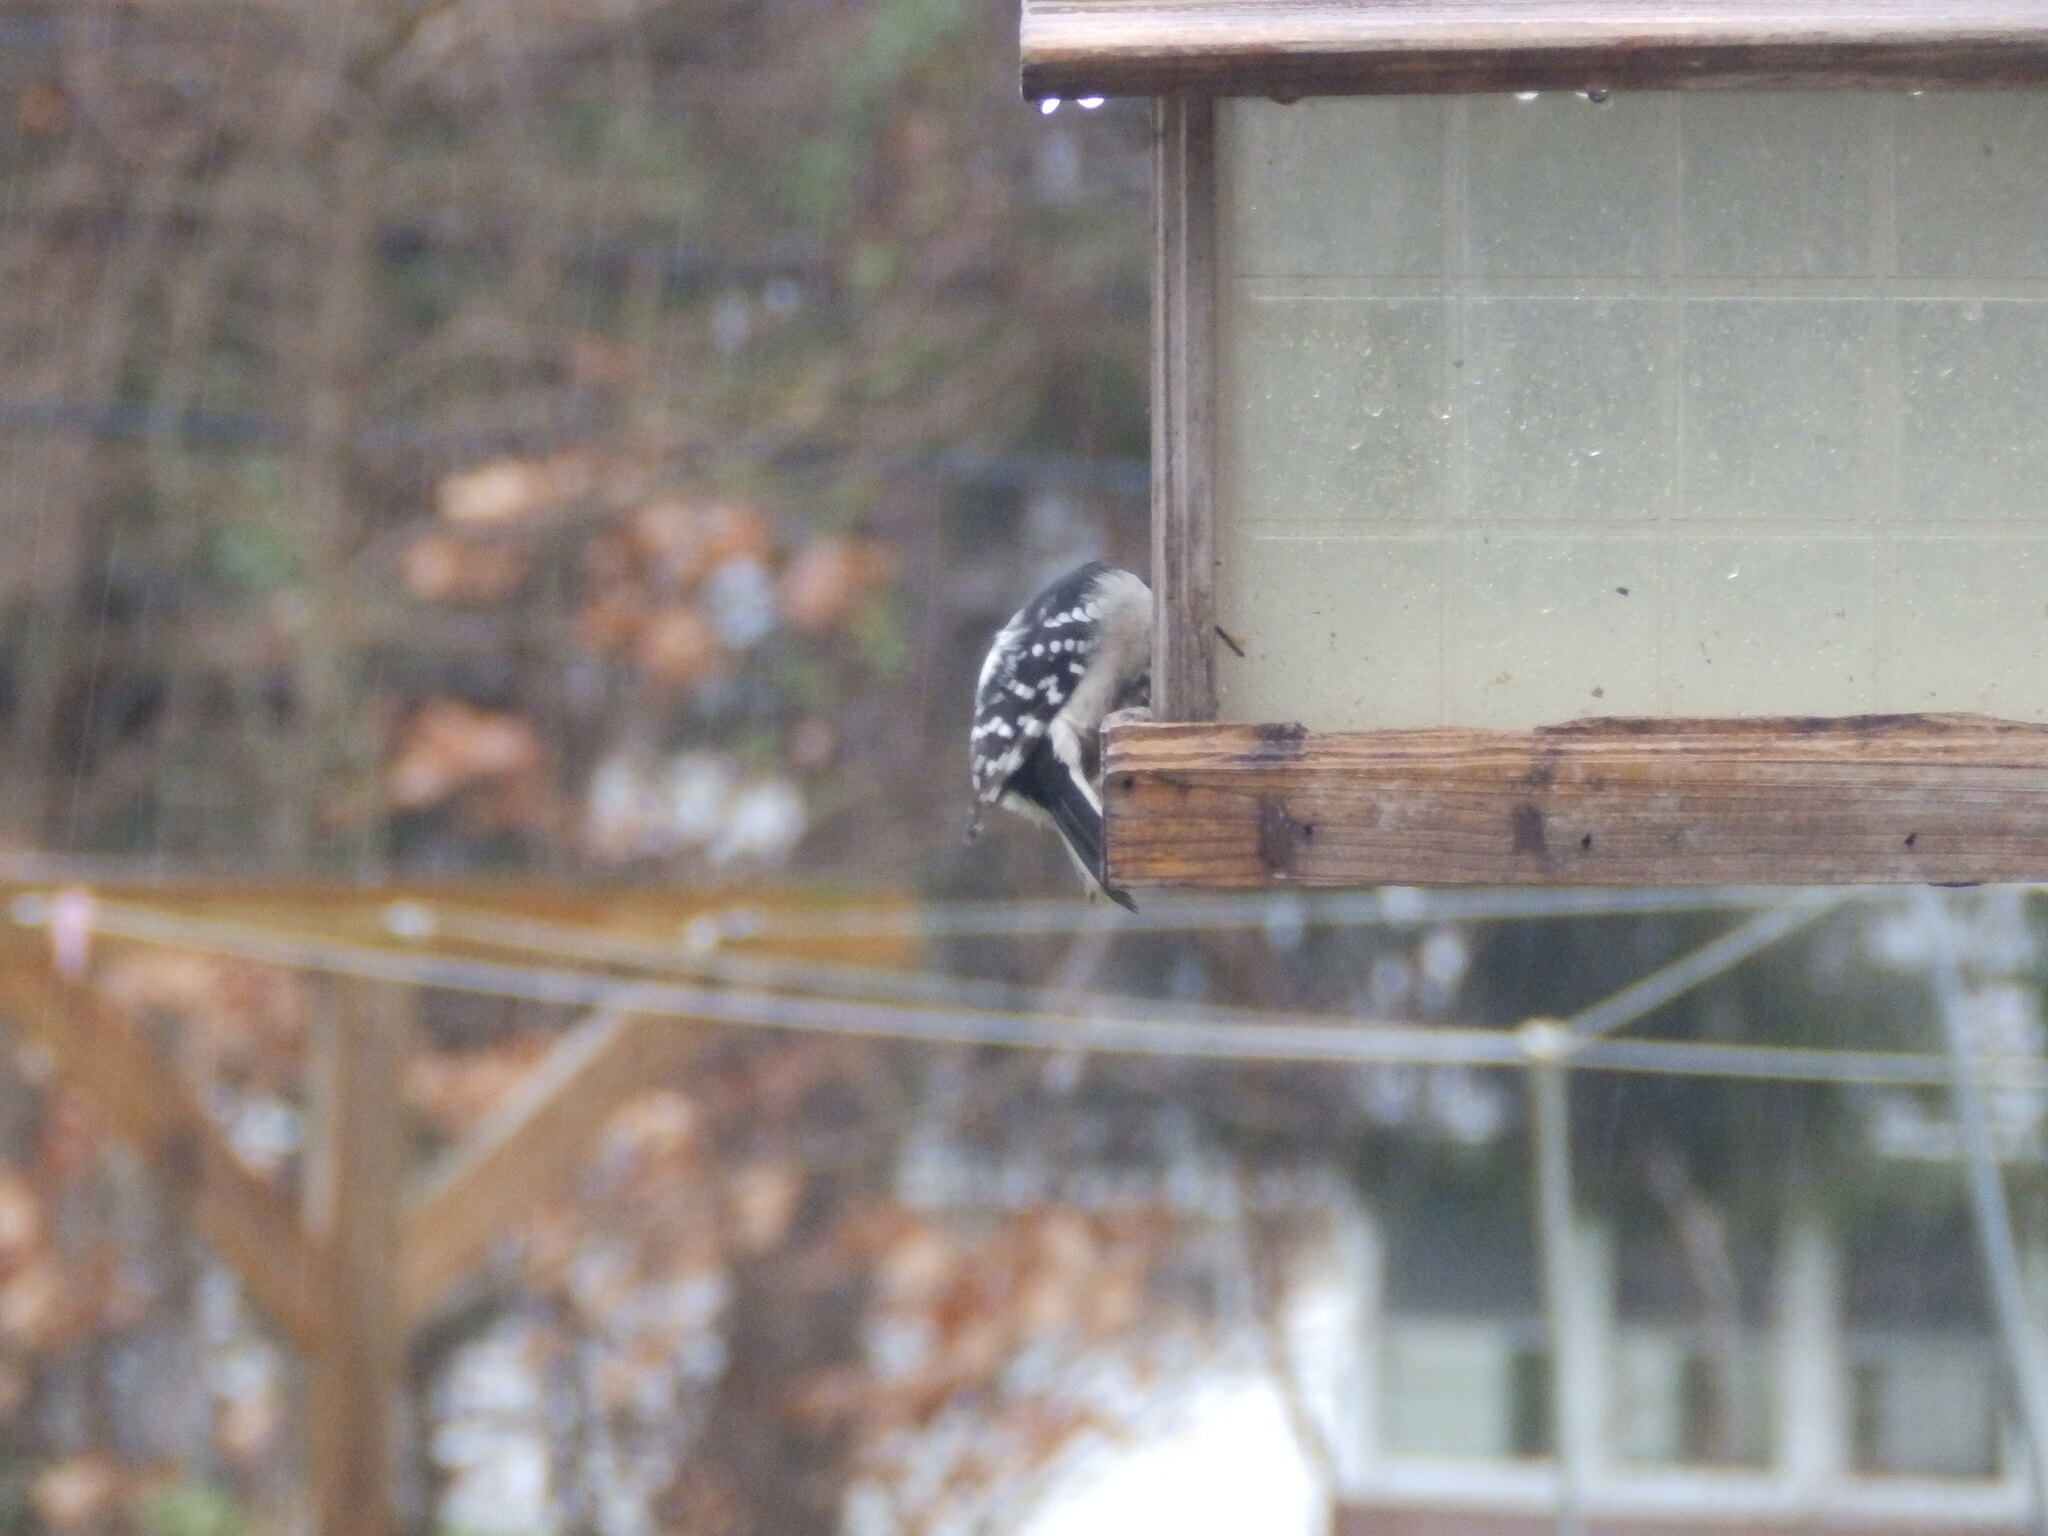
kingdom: Animalia
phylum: Chordata
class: Aves
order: Piciformes
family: Picidae
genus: Dryobates
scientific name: Dryobates pubescens
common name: Downy woodpecker
